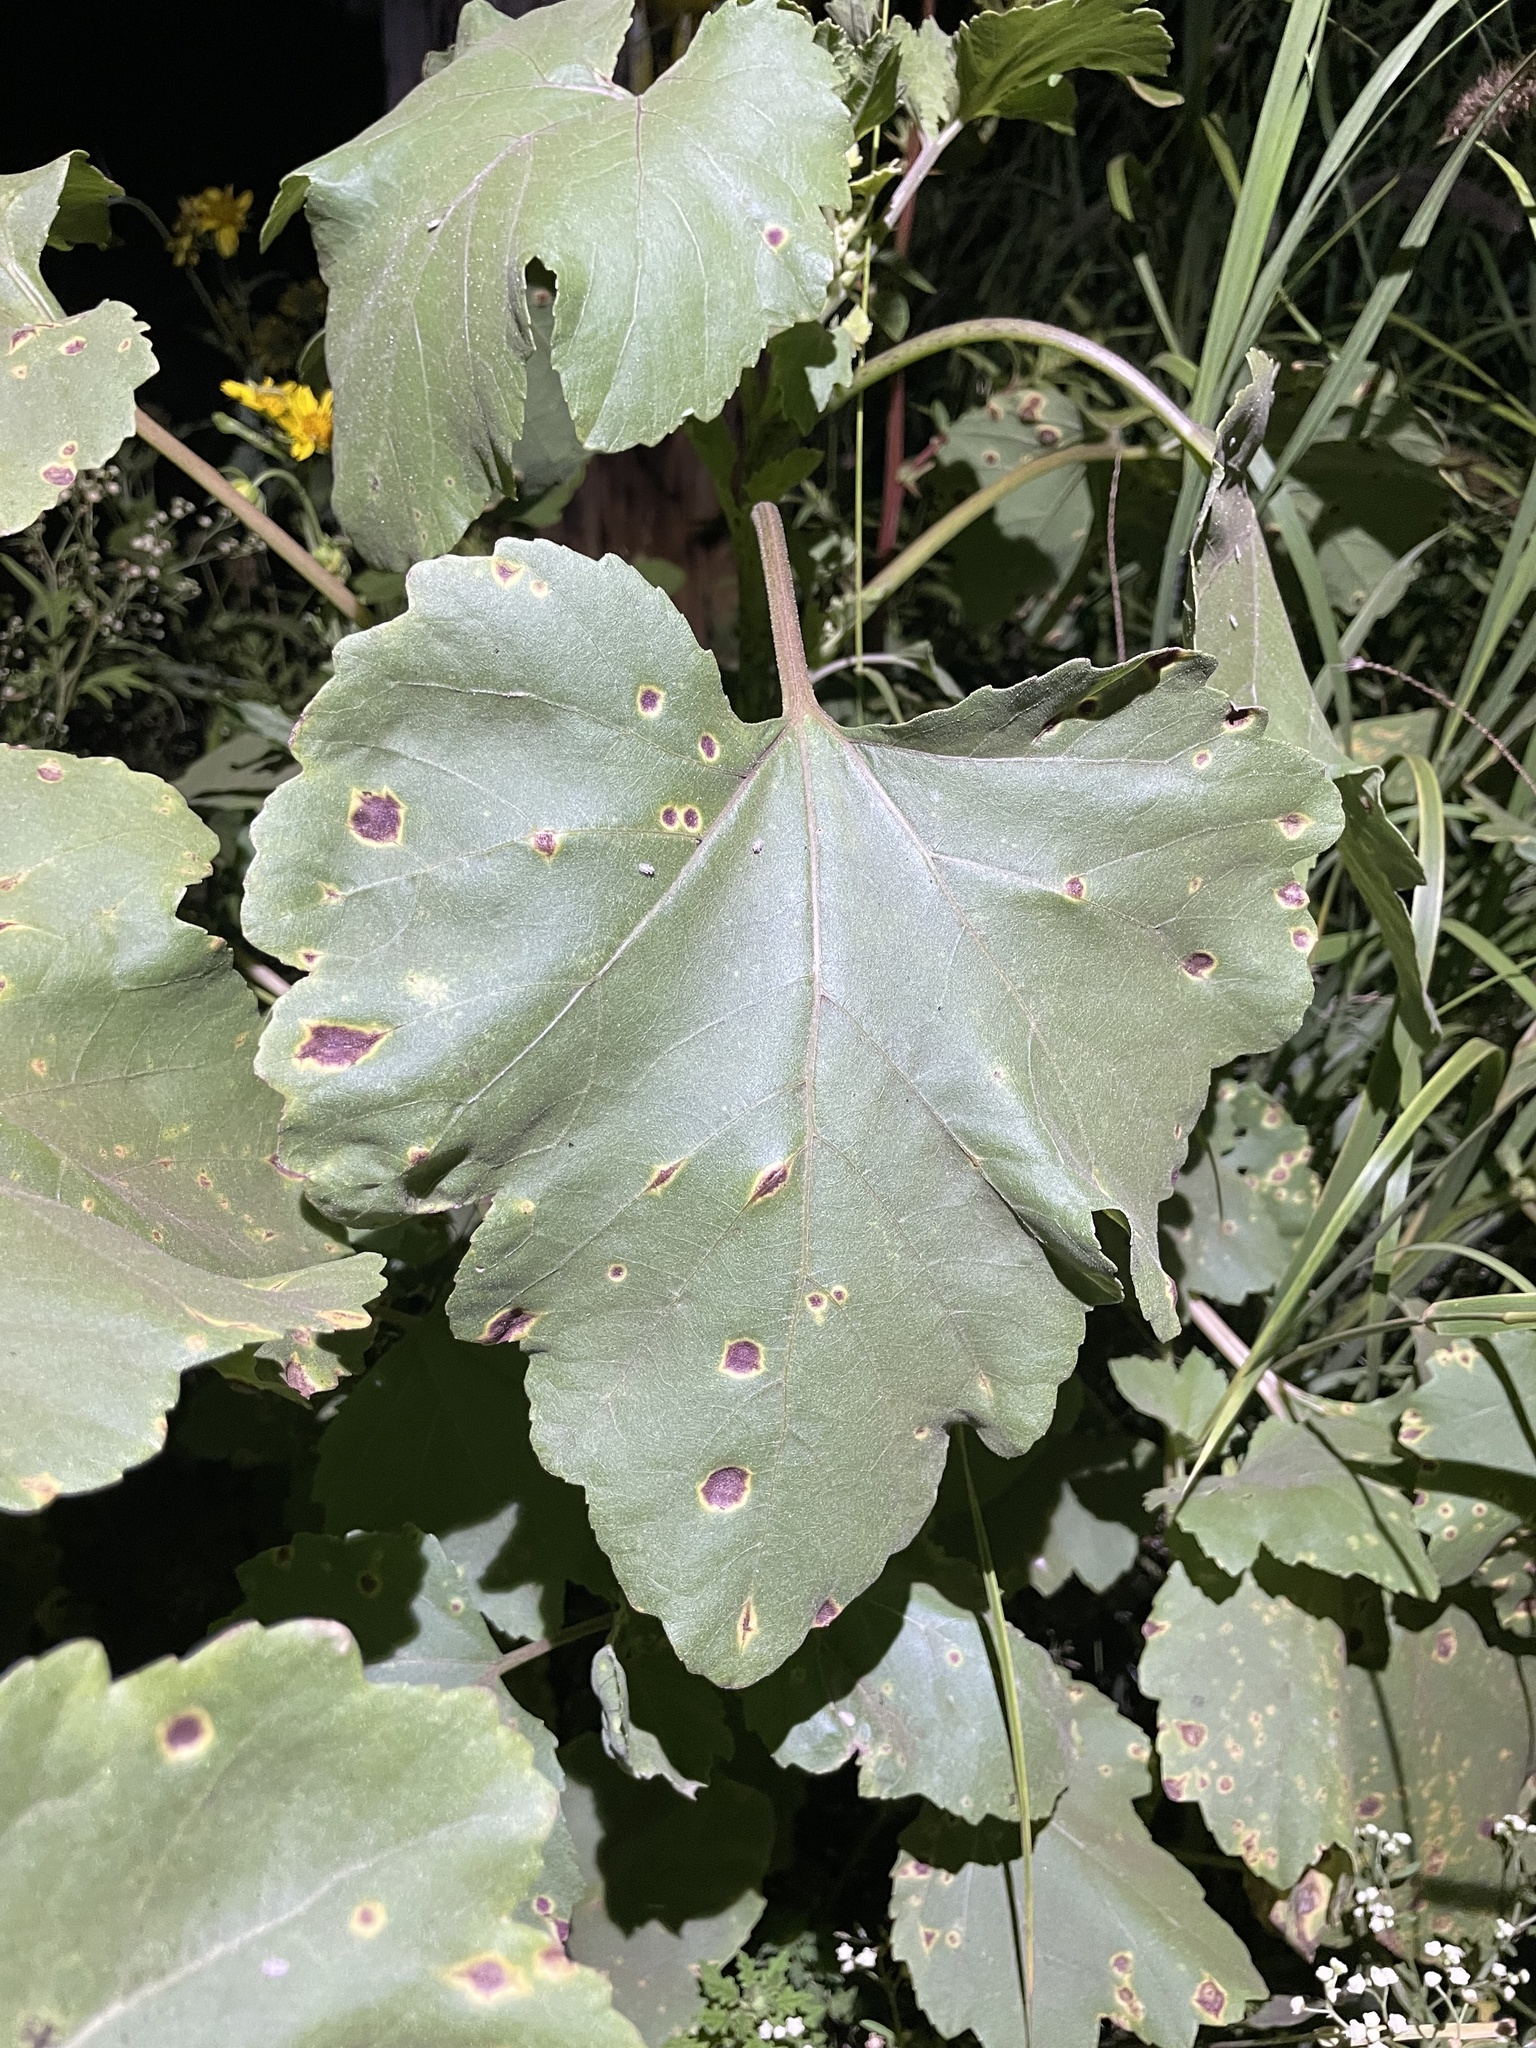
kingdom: Plantae
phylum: Tracheophyta
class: Magnoliopsida
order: Asterales
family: Asteraceae
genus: Xanthium
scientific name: Xanthium strumarium
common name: Rough cocklebur
